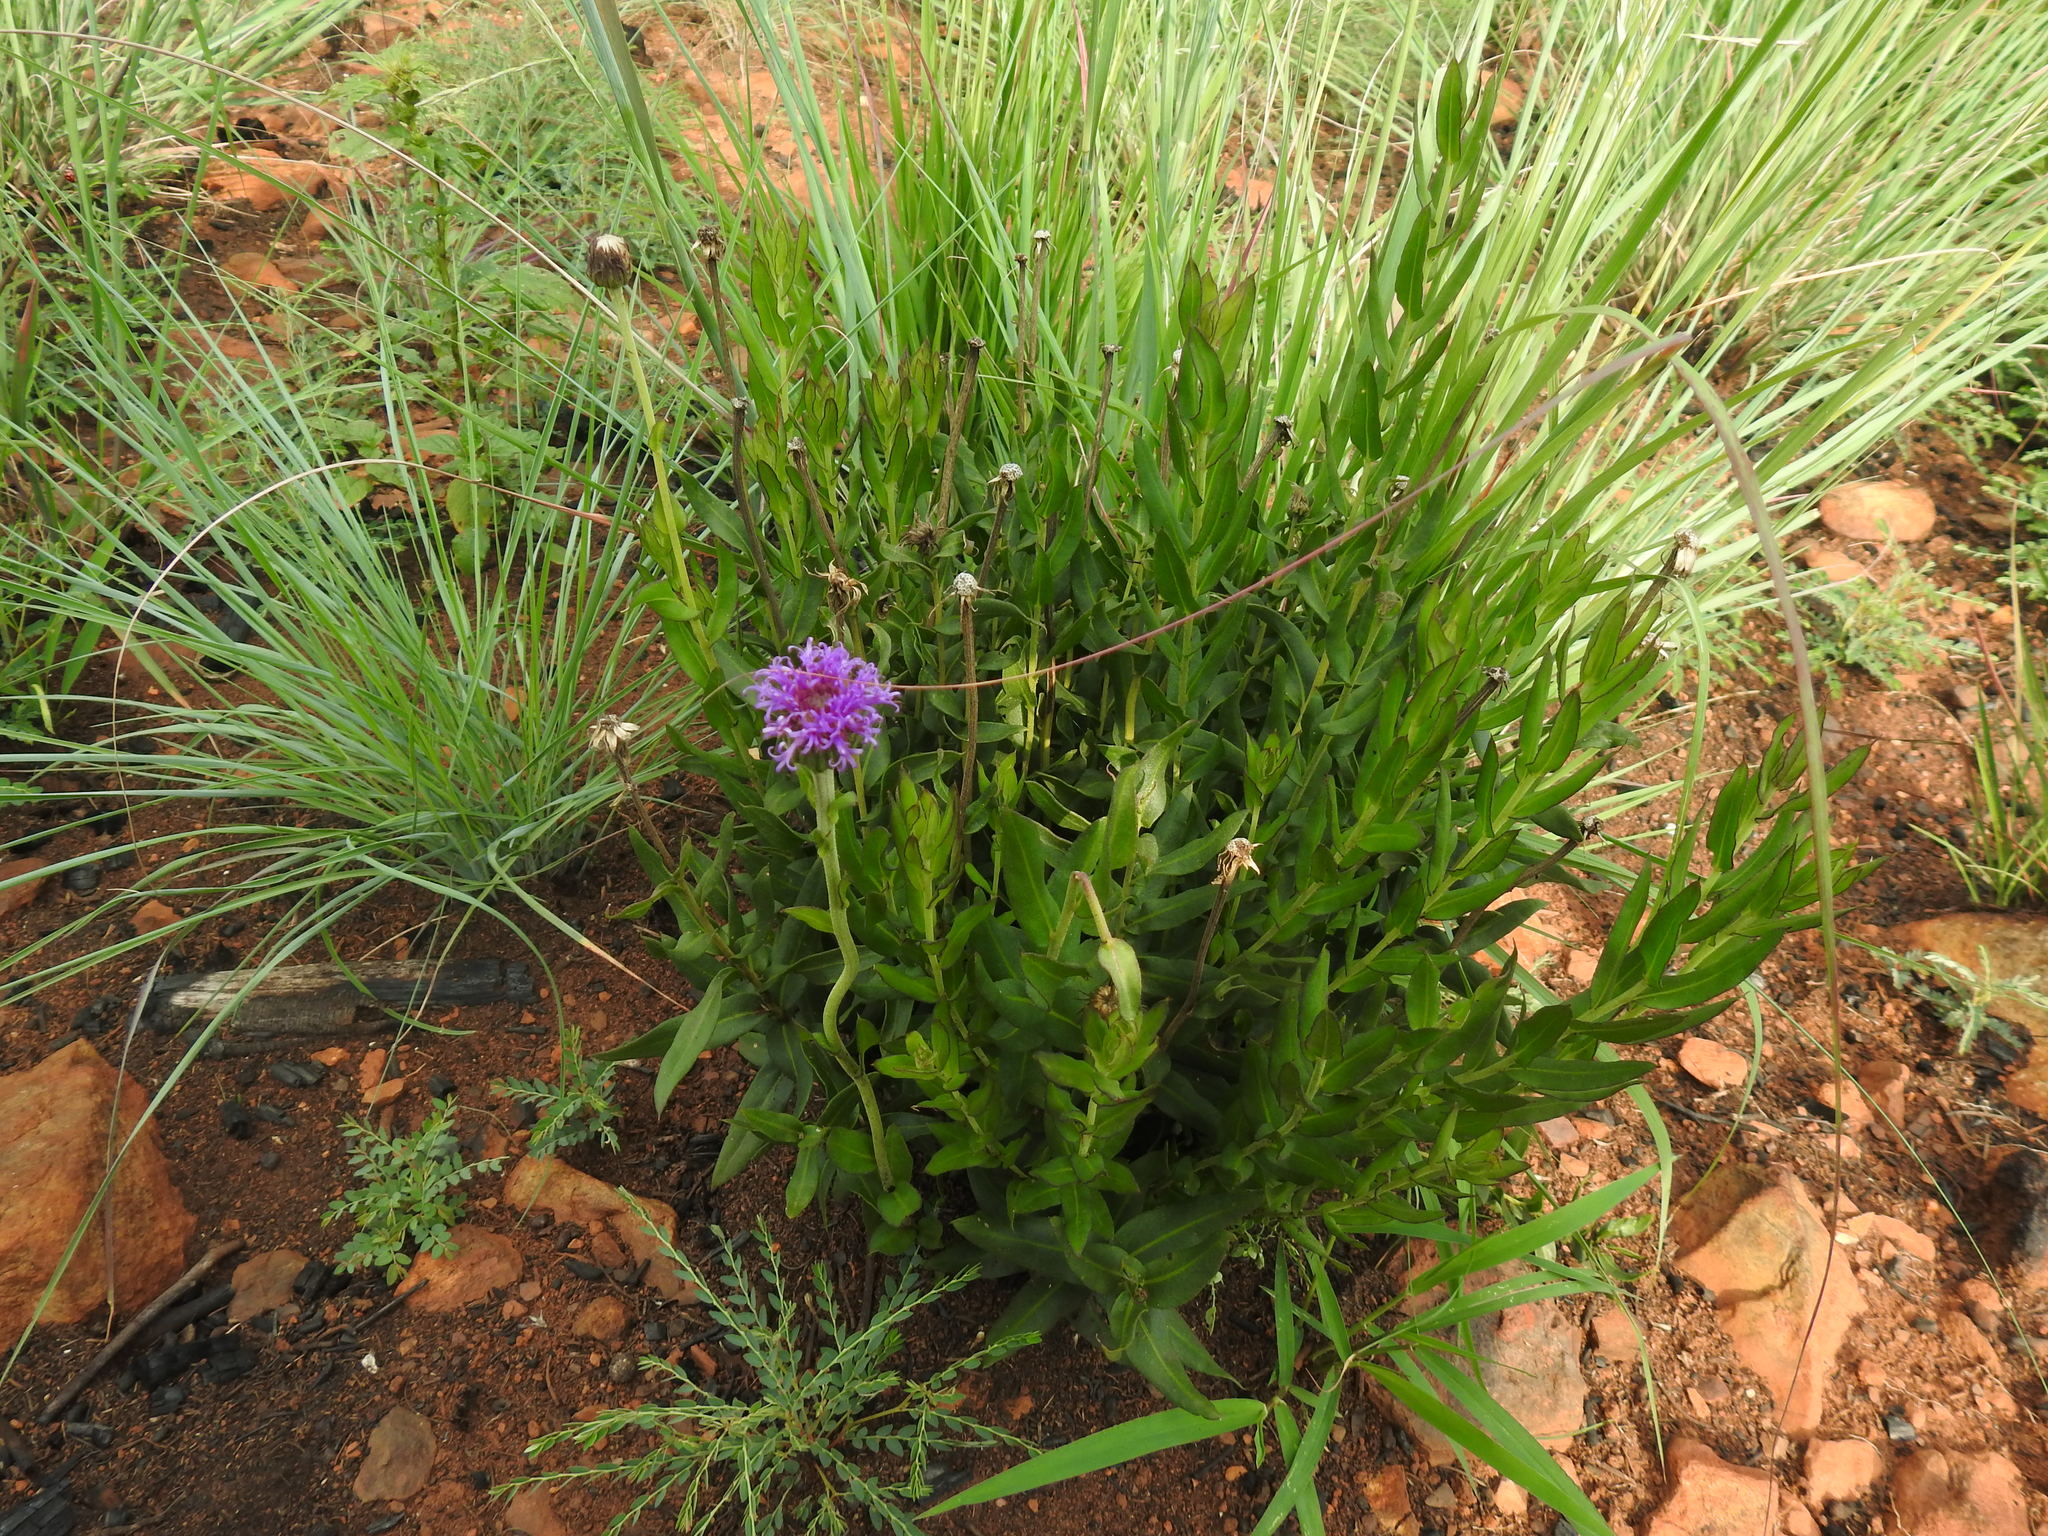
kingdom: Plantae
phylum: Tracheophyta
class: Magnoliopsida
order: Asterales
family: Asteraceae
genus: Pseudopegolettia
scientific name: Pseudopegolettia tenella
